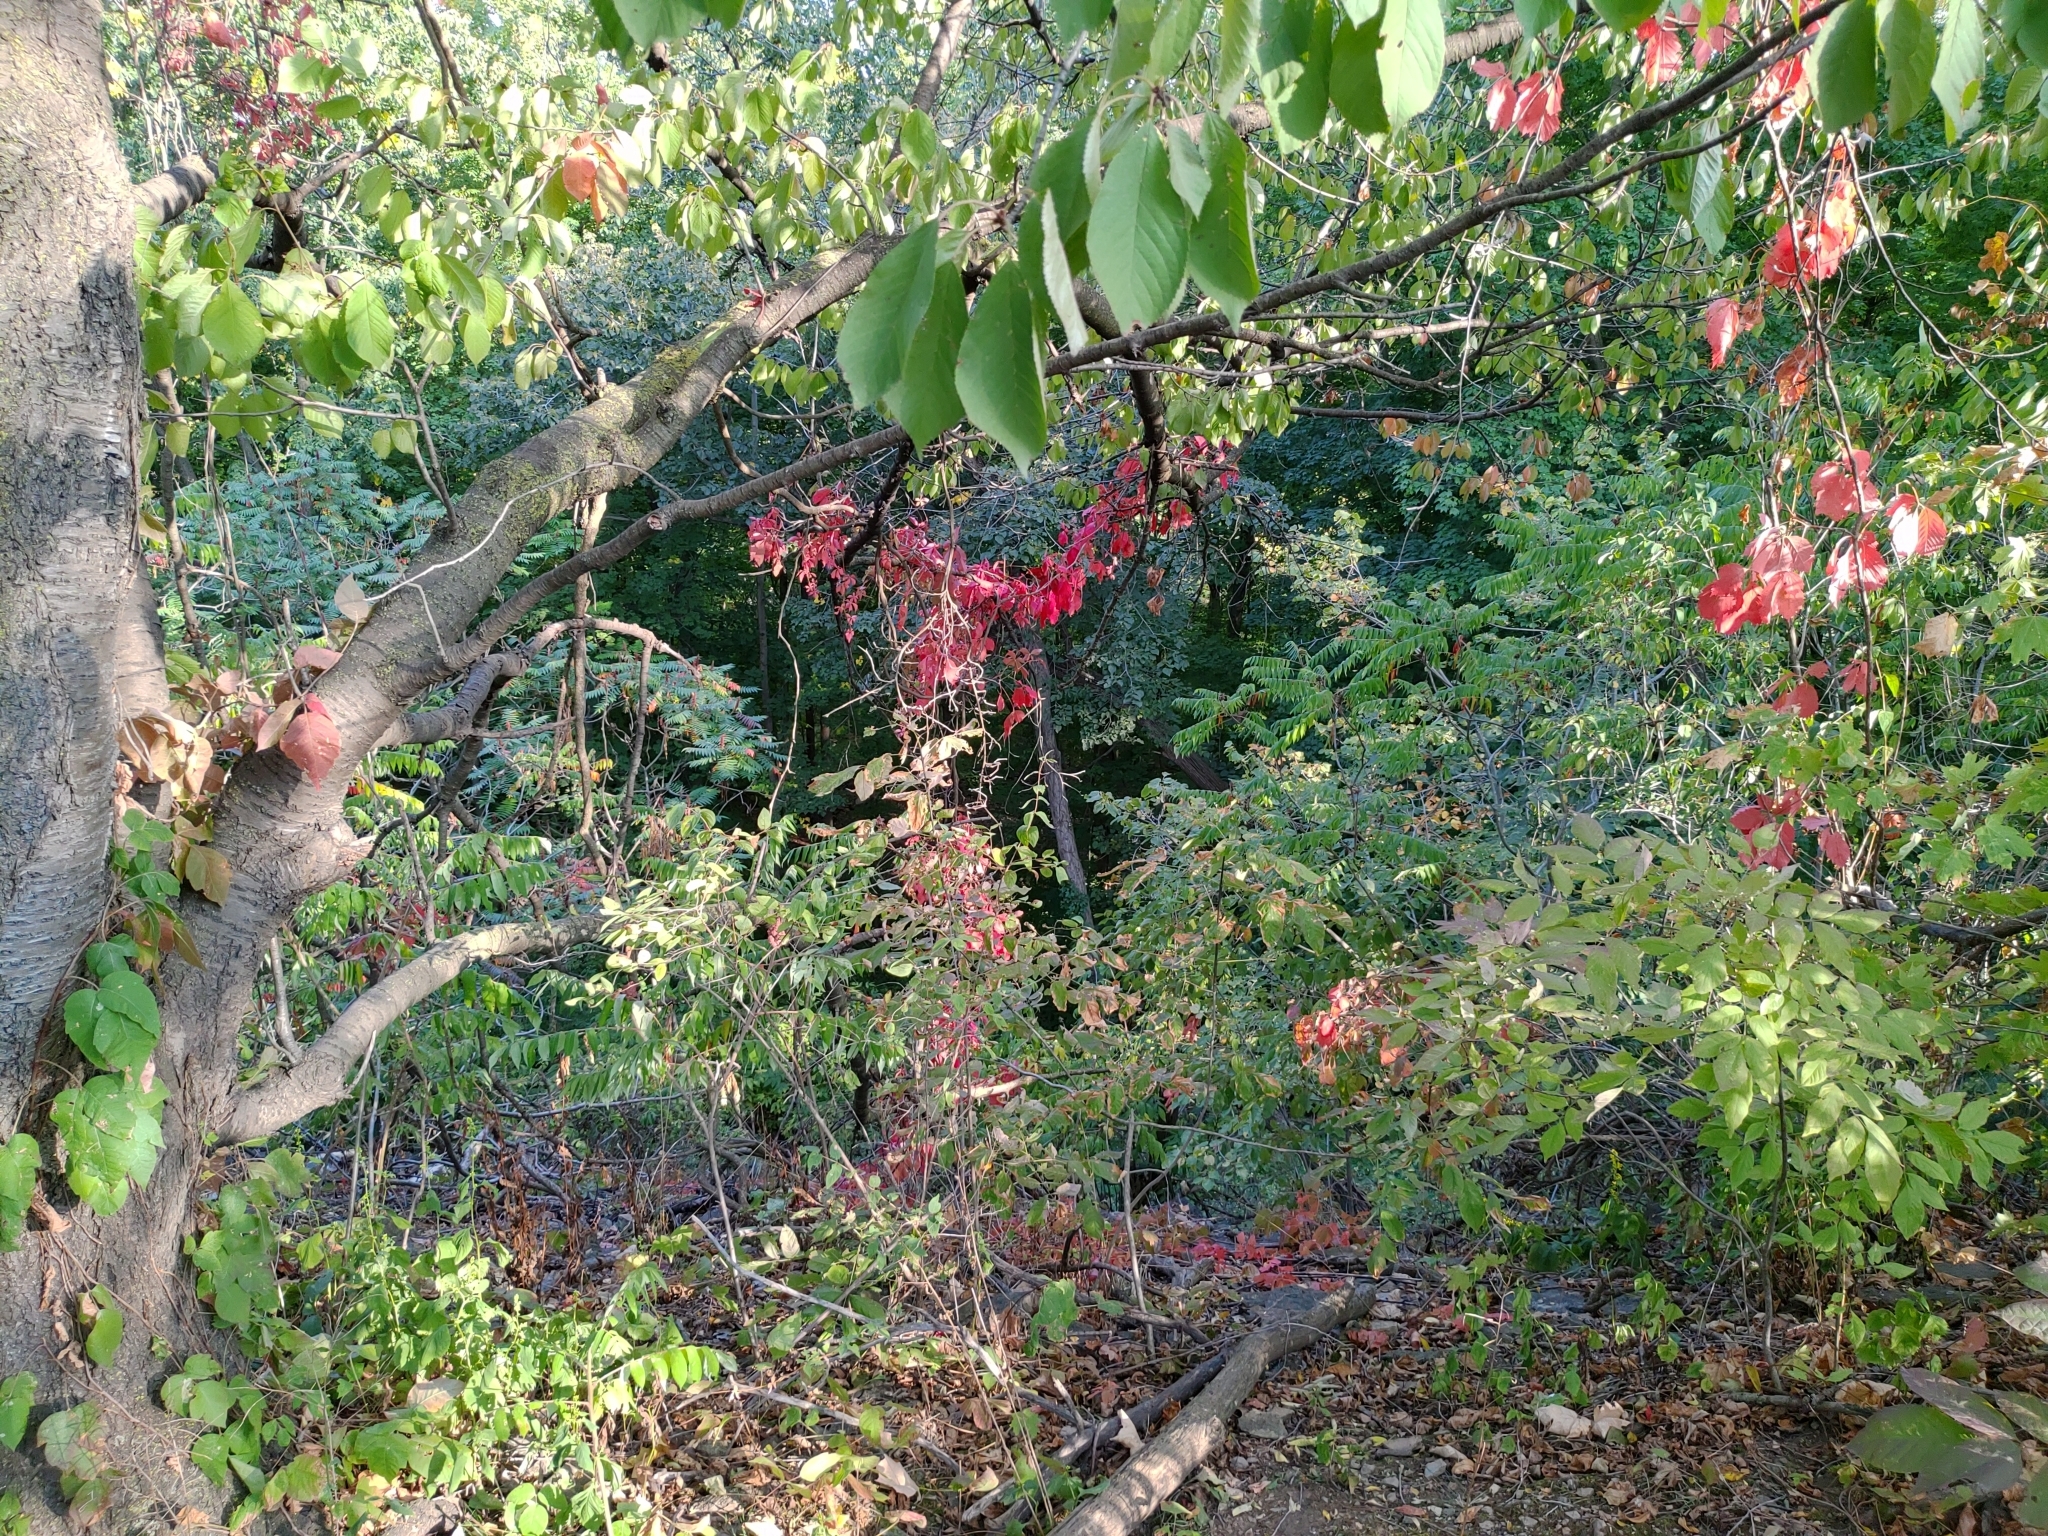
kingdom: Plantae
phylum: Tracheophyta
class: Magnoliopsida
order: Vitales
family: Vitaceae
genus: Parthenocissus
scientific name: Parthenocissus quinquefolia
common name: Virginia-creeper
